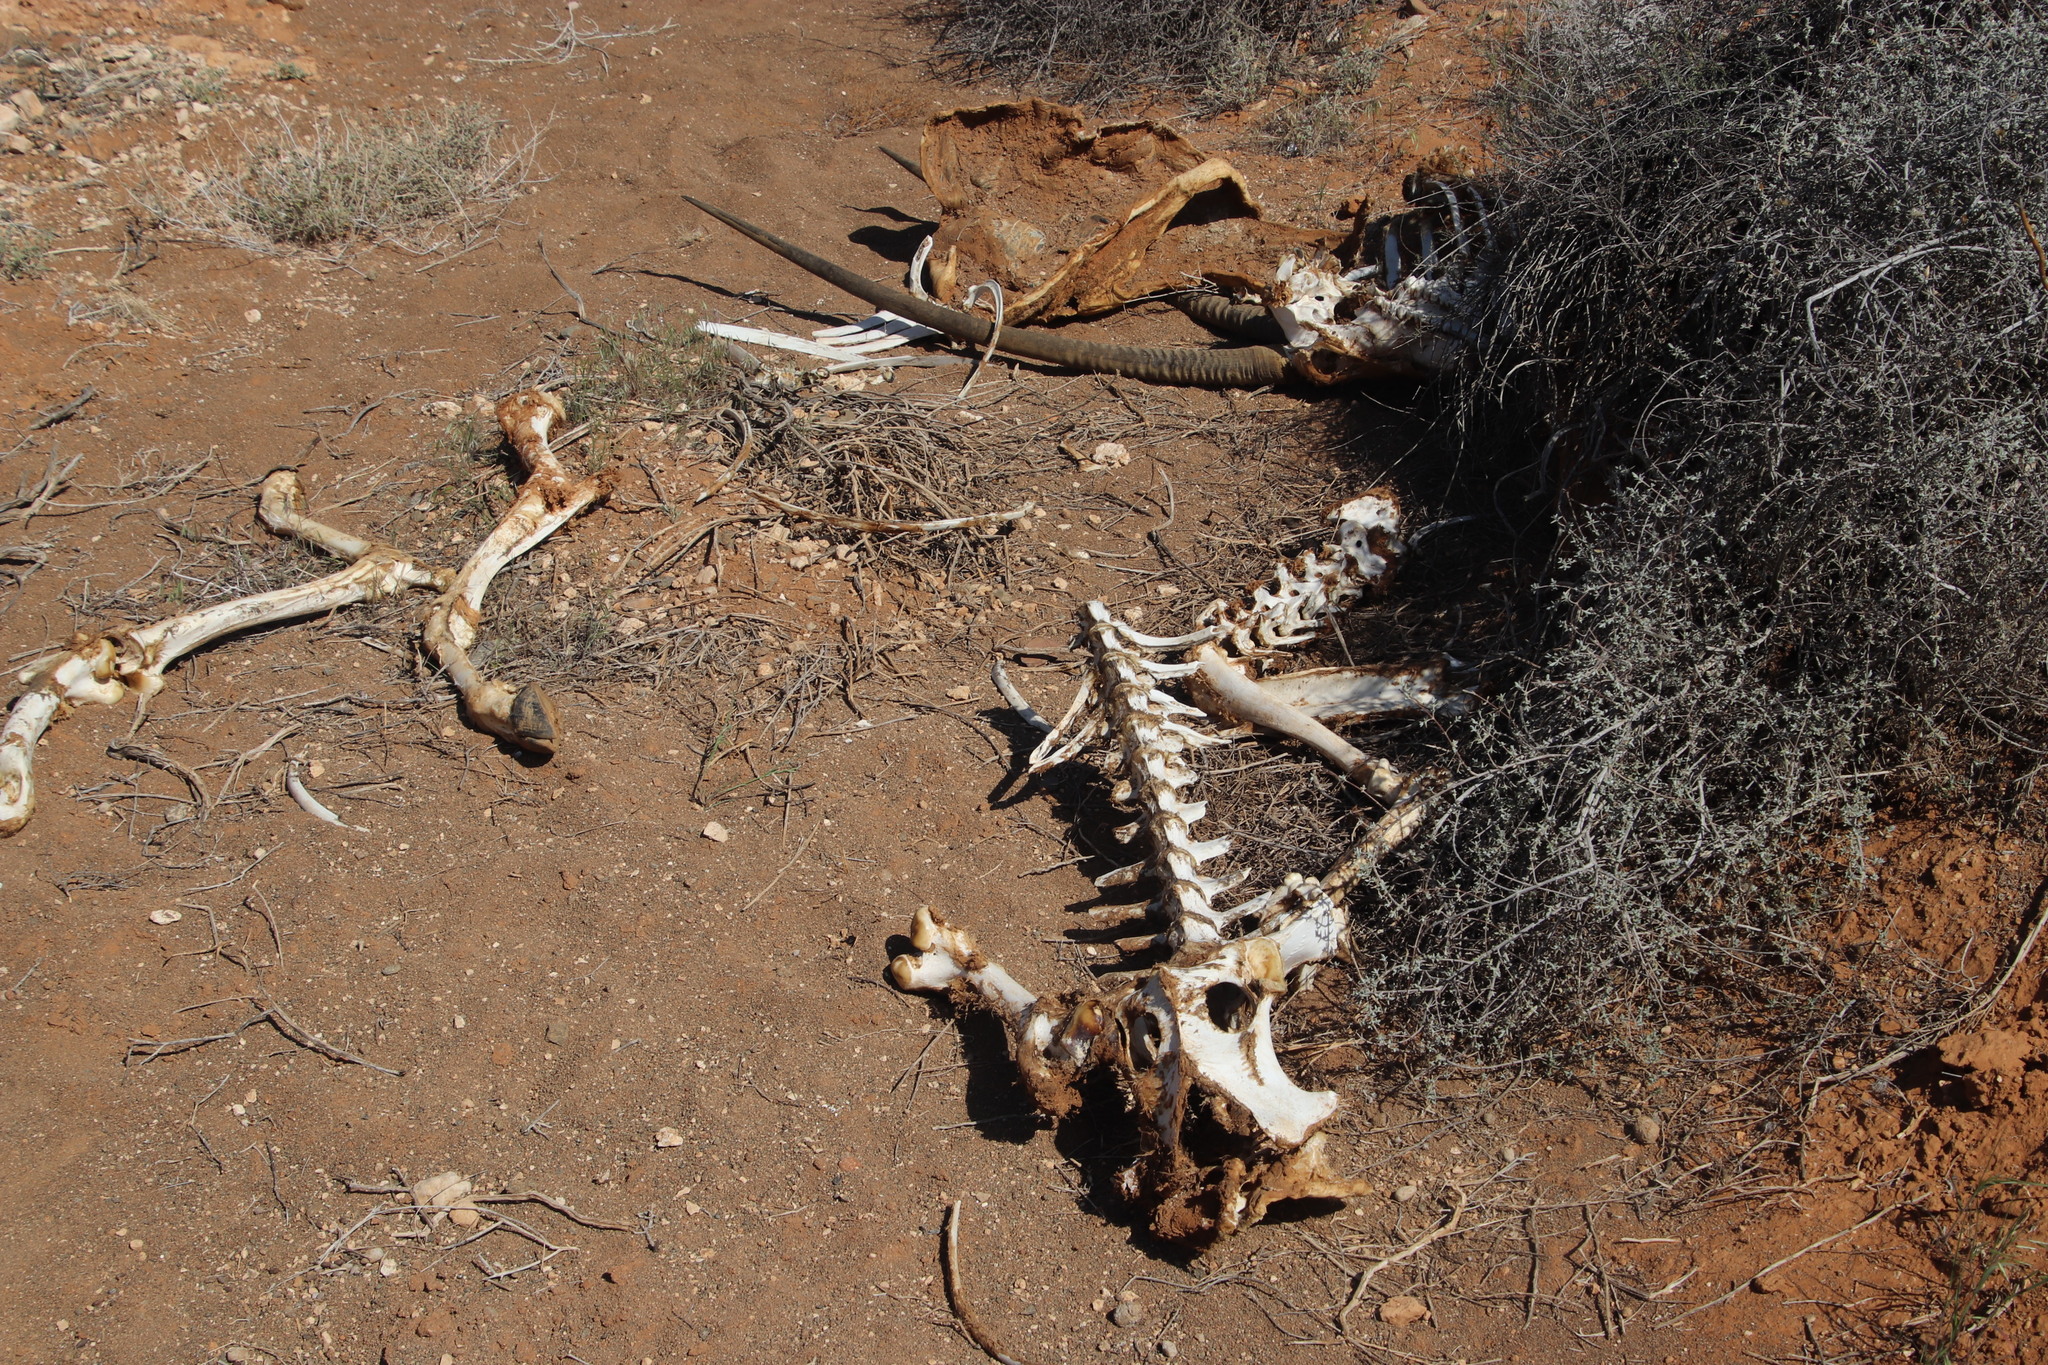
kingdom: Animalia
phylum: Chordata
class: Mammalia
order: Artiodactyla
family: Bovidae
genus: Oryx
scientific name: Oryx gazella
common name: Gemsbok
